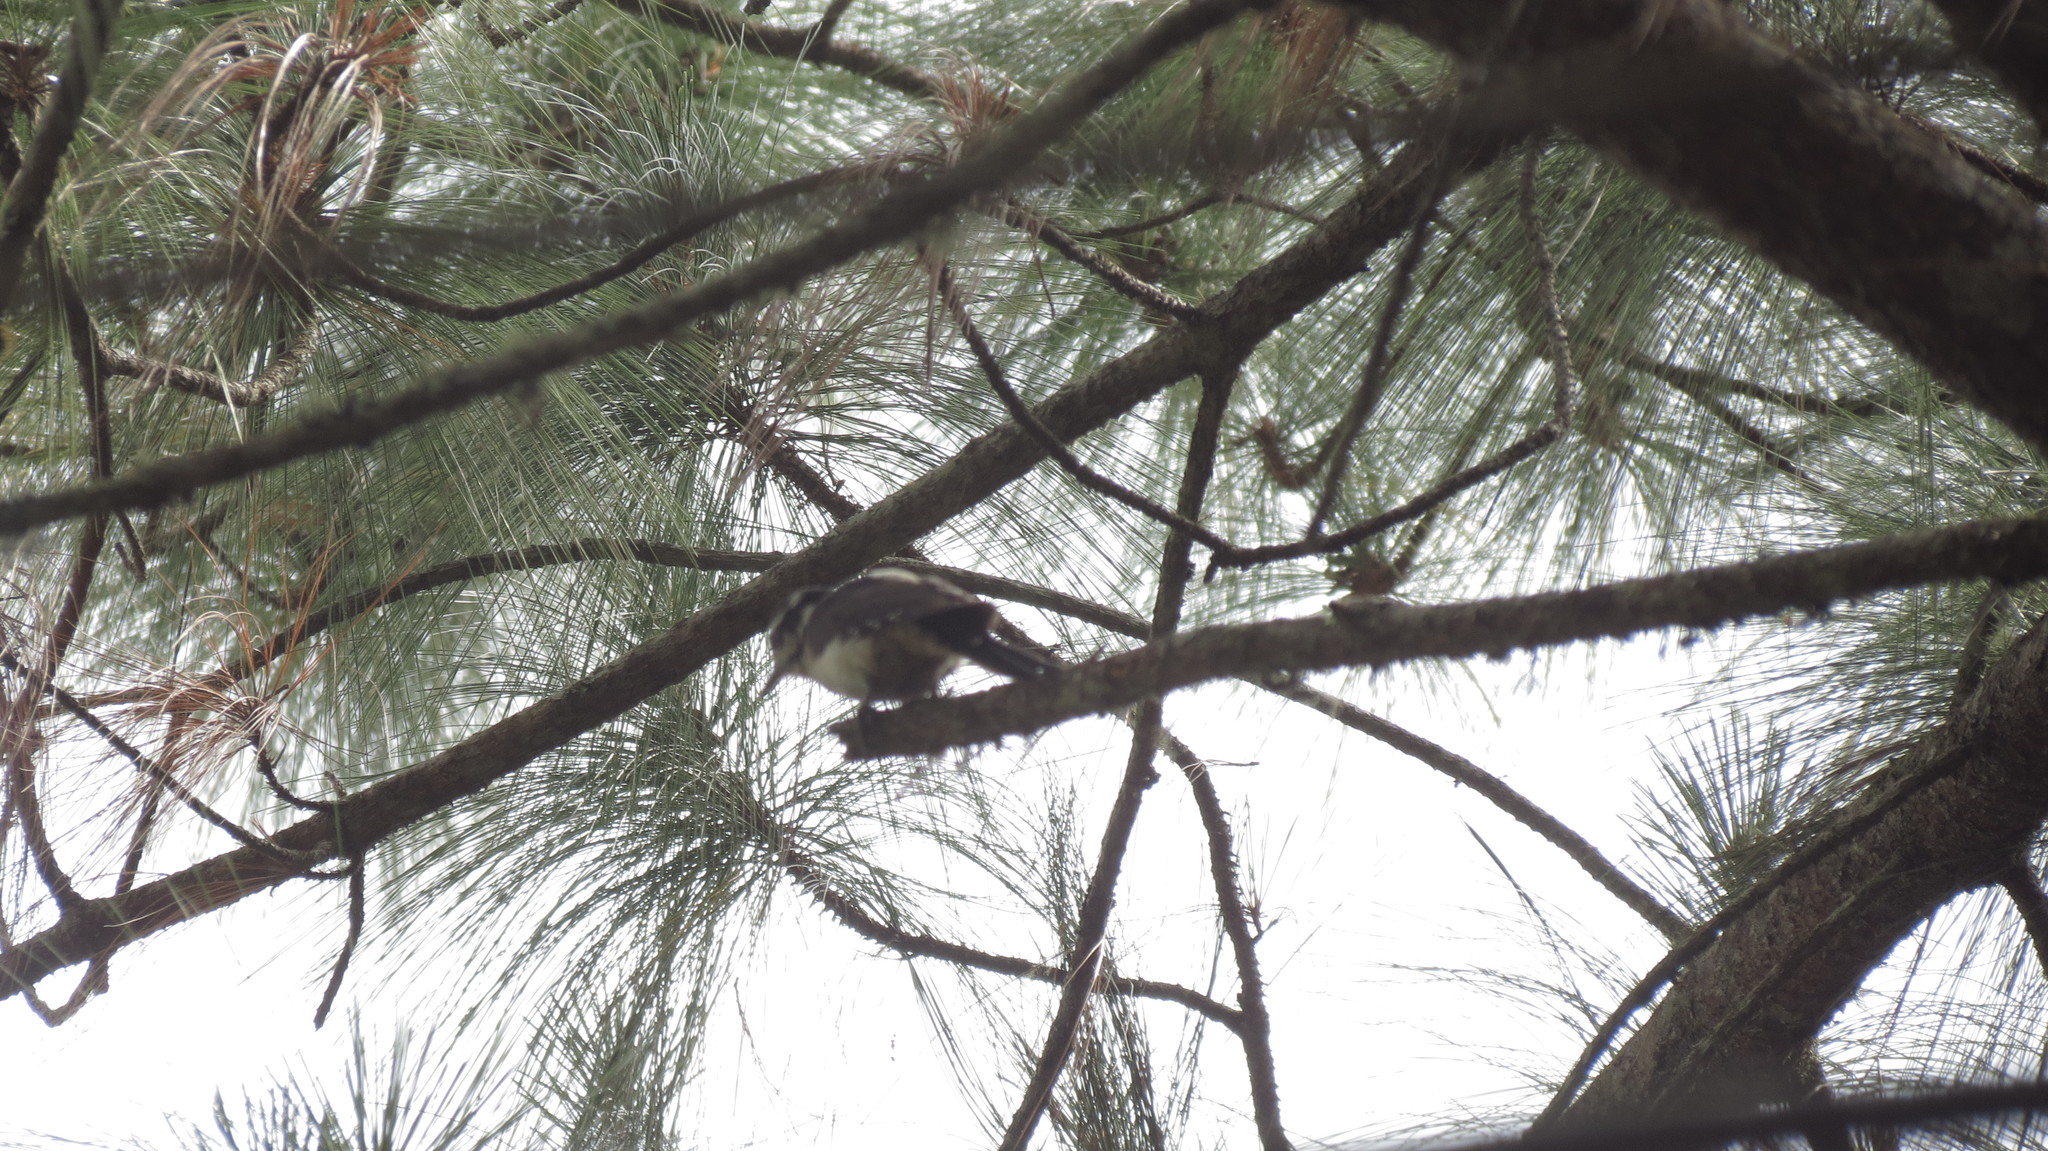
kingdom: Animalia
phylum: Chordata
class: Aves
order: Piciformes
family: Picidae
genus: Leuconotopicus
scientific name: Leuconotopicus villosus
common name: Hairy woodpecker
